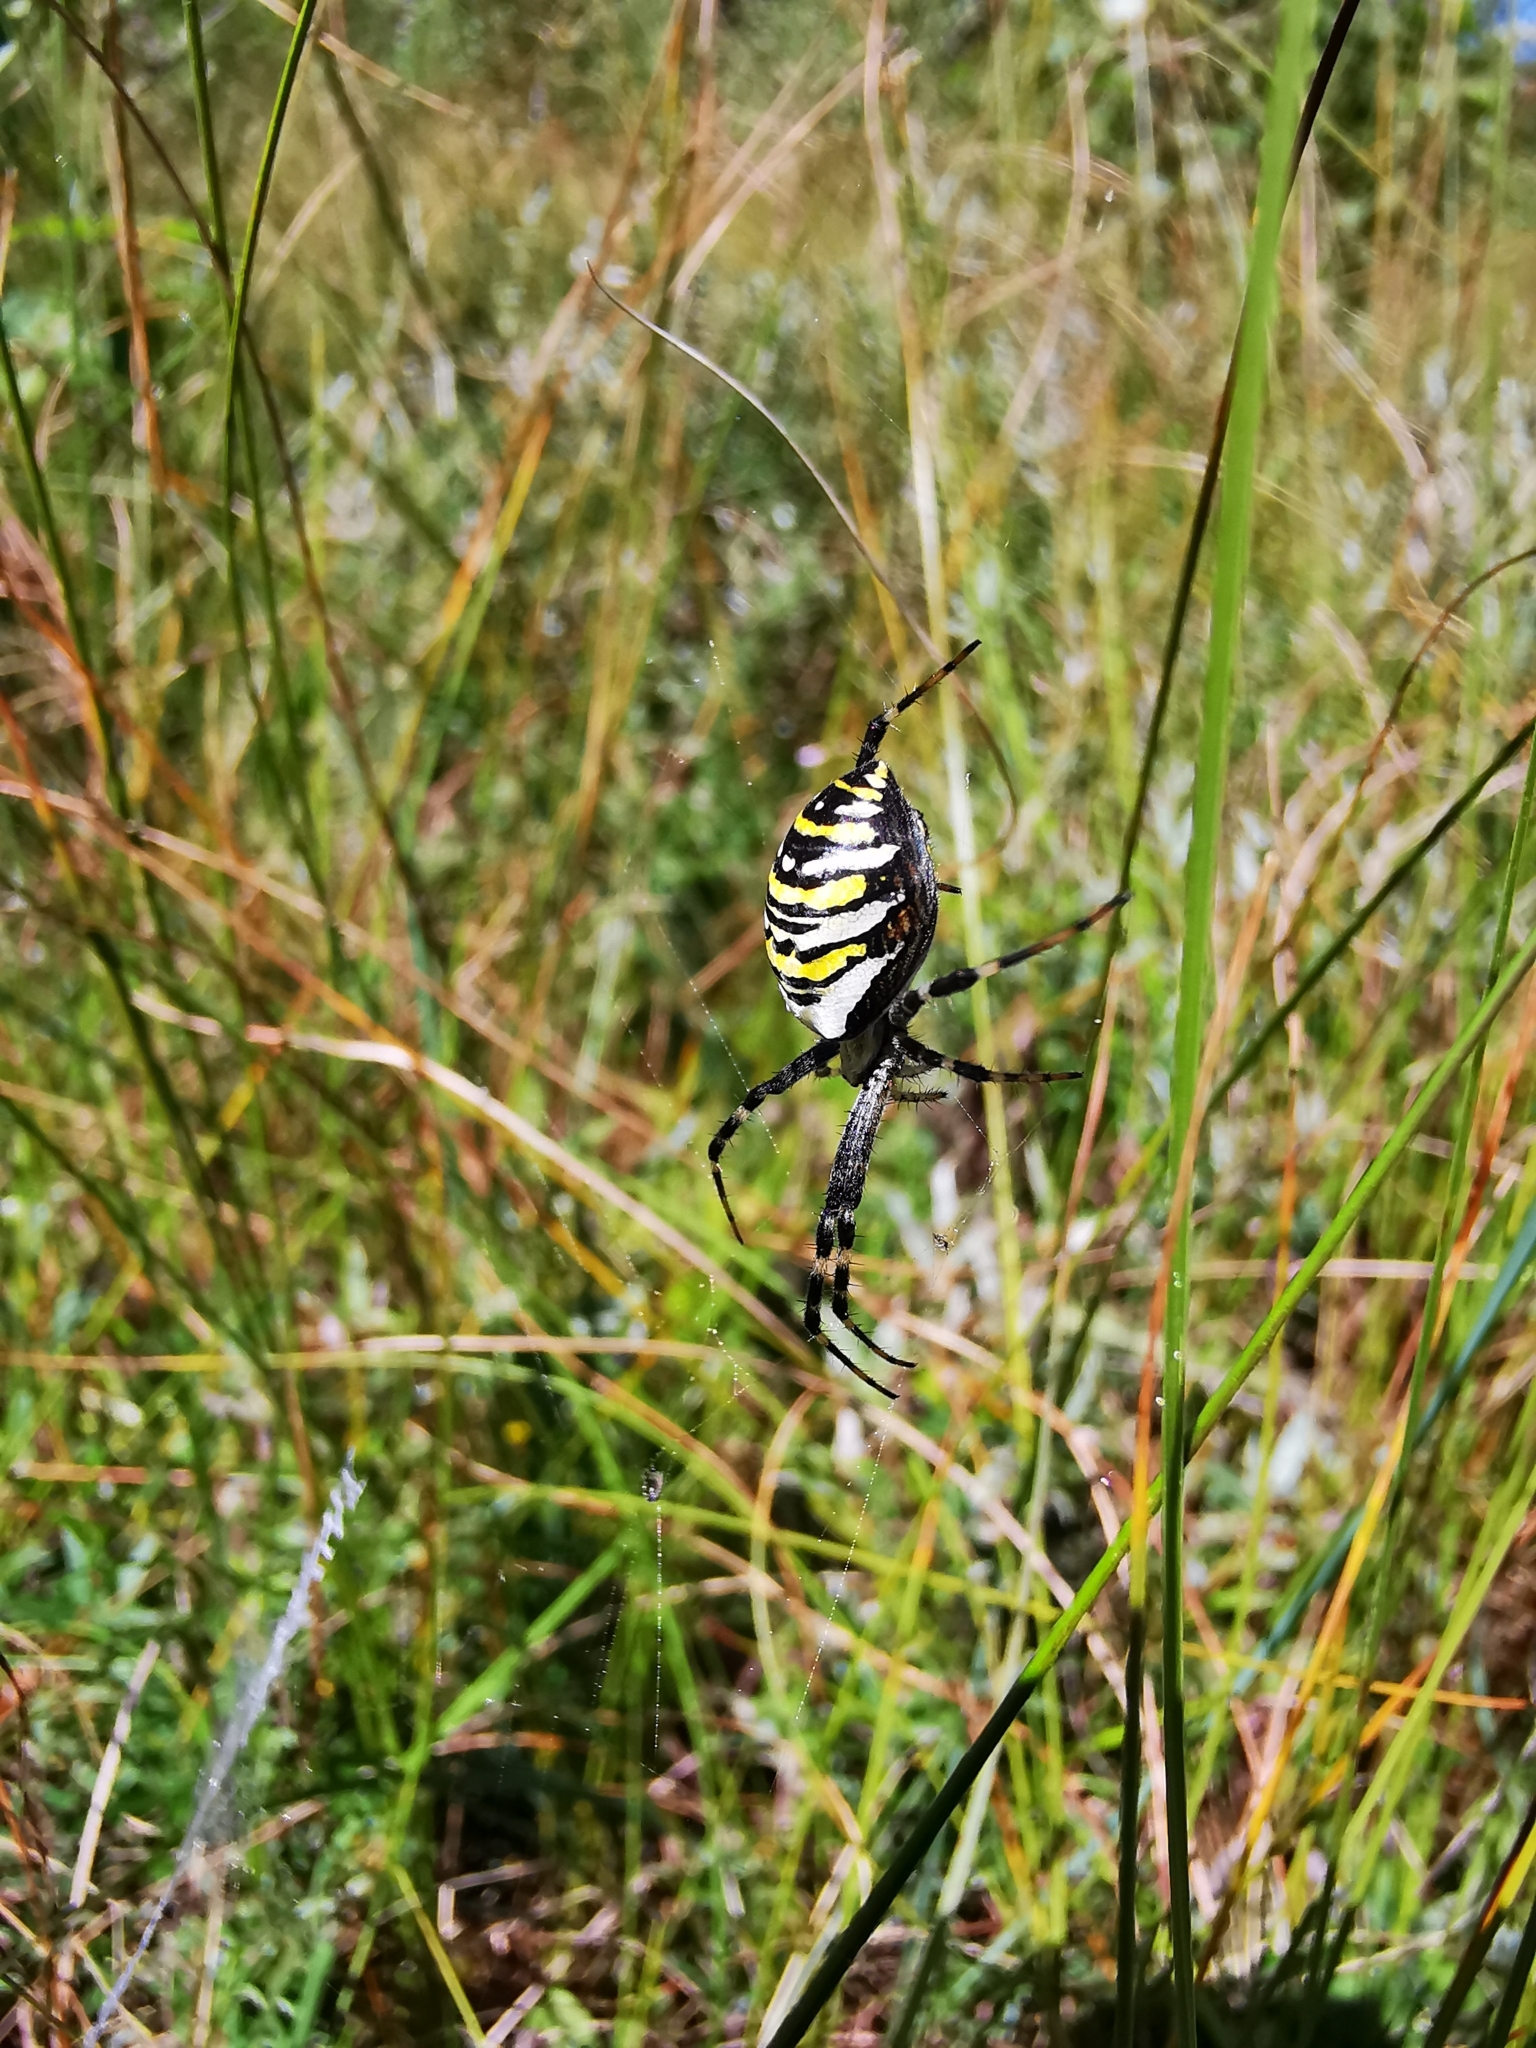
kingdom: Animalia
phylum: Arthropoda
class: Arachnida
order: Araneae
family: Araneidae
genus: Argiope
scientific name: Argiope bruennichi
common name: Wasp spider
